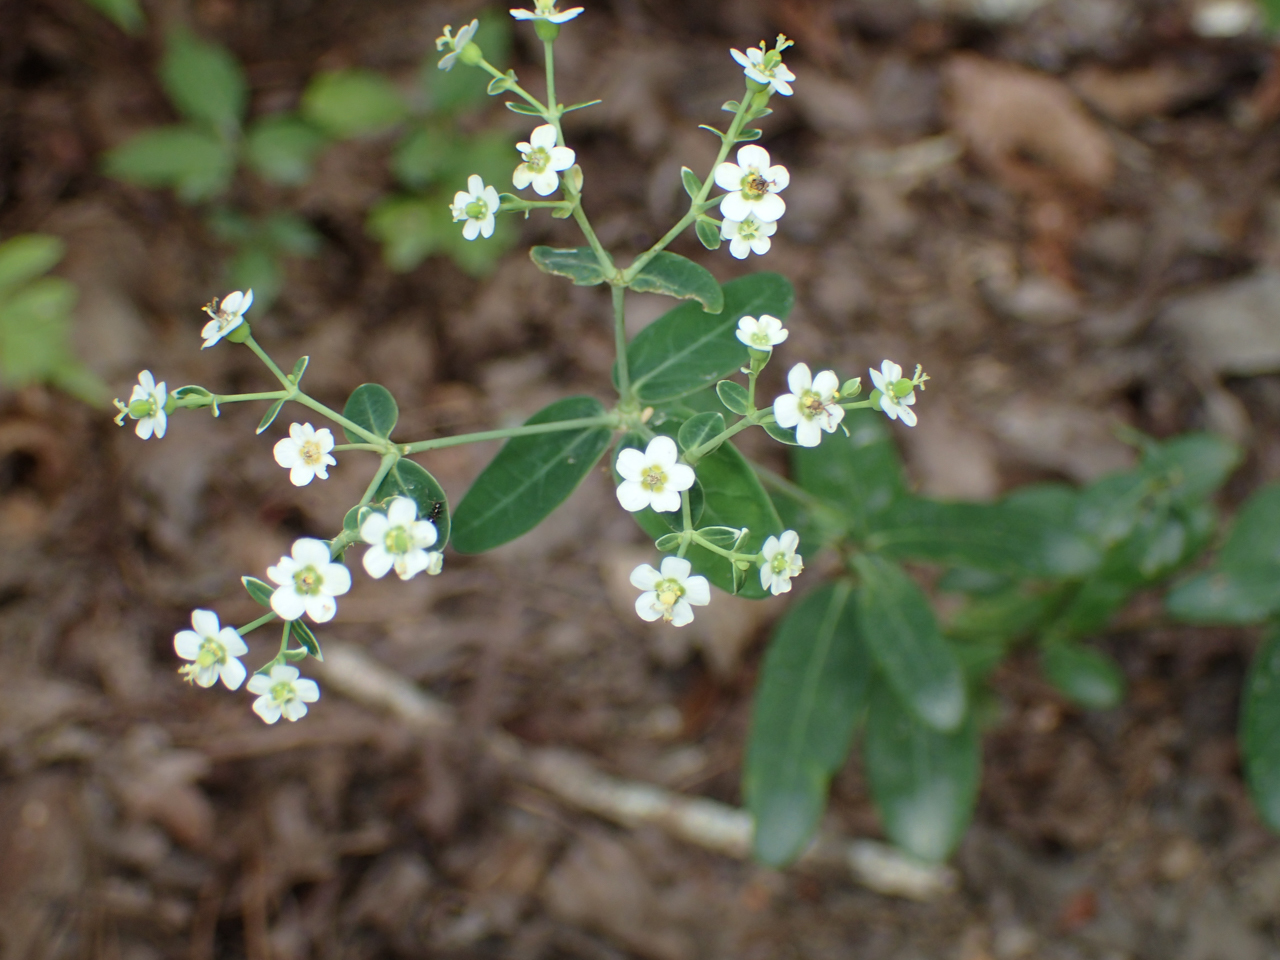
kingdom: Plantae
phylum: Tracheophyta
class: Magnoliopsida
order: Malpighiales
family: Euphorbiaceae
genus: Euphorbia
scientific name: Euphorbia corollata
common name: Flowering spurge
